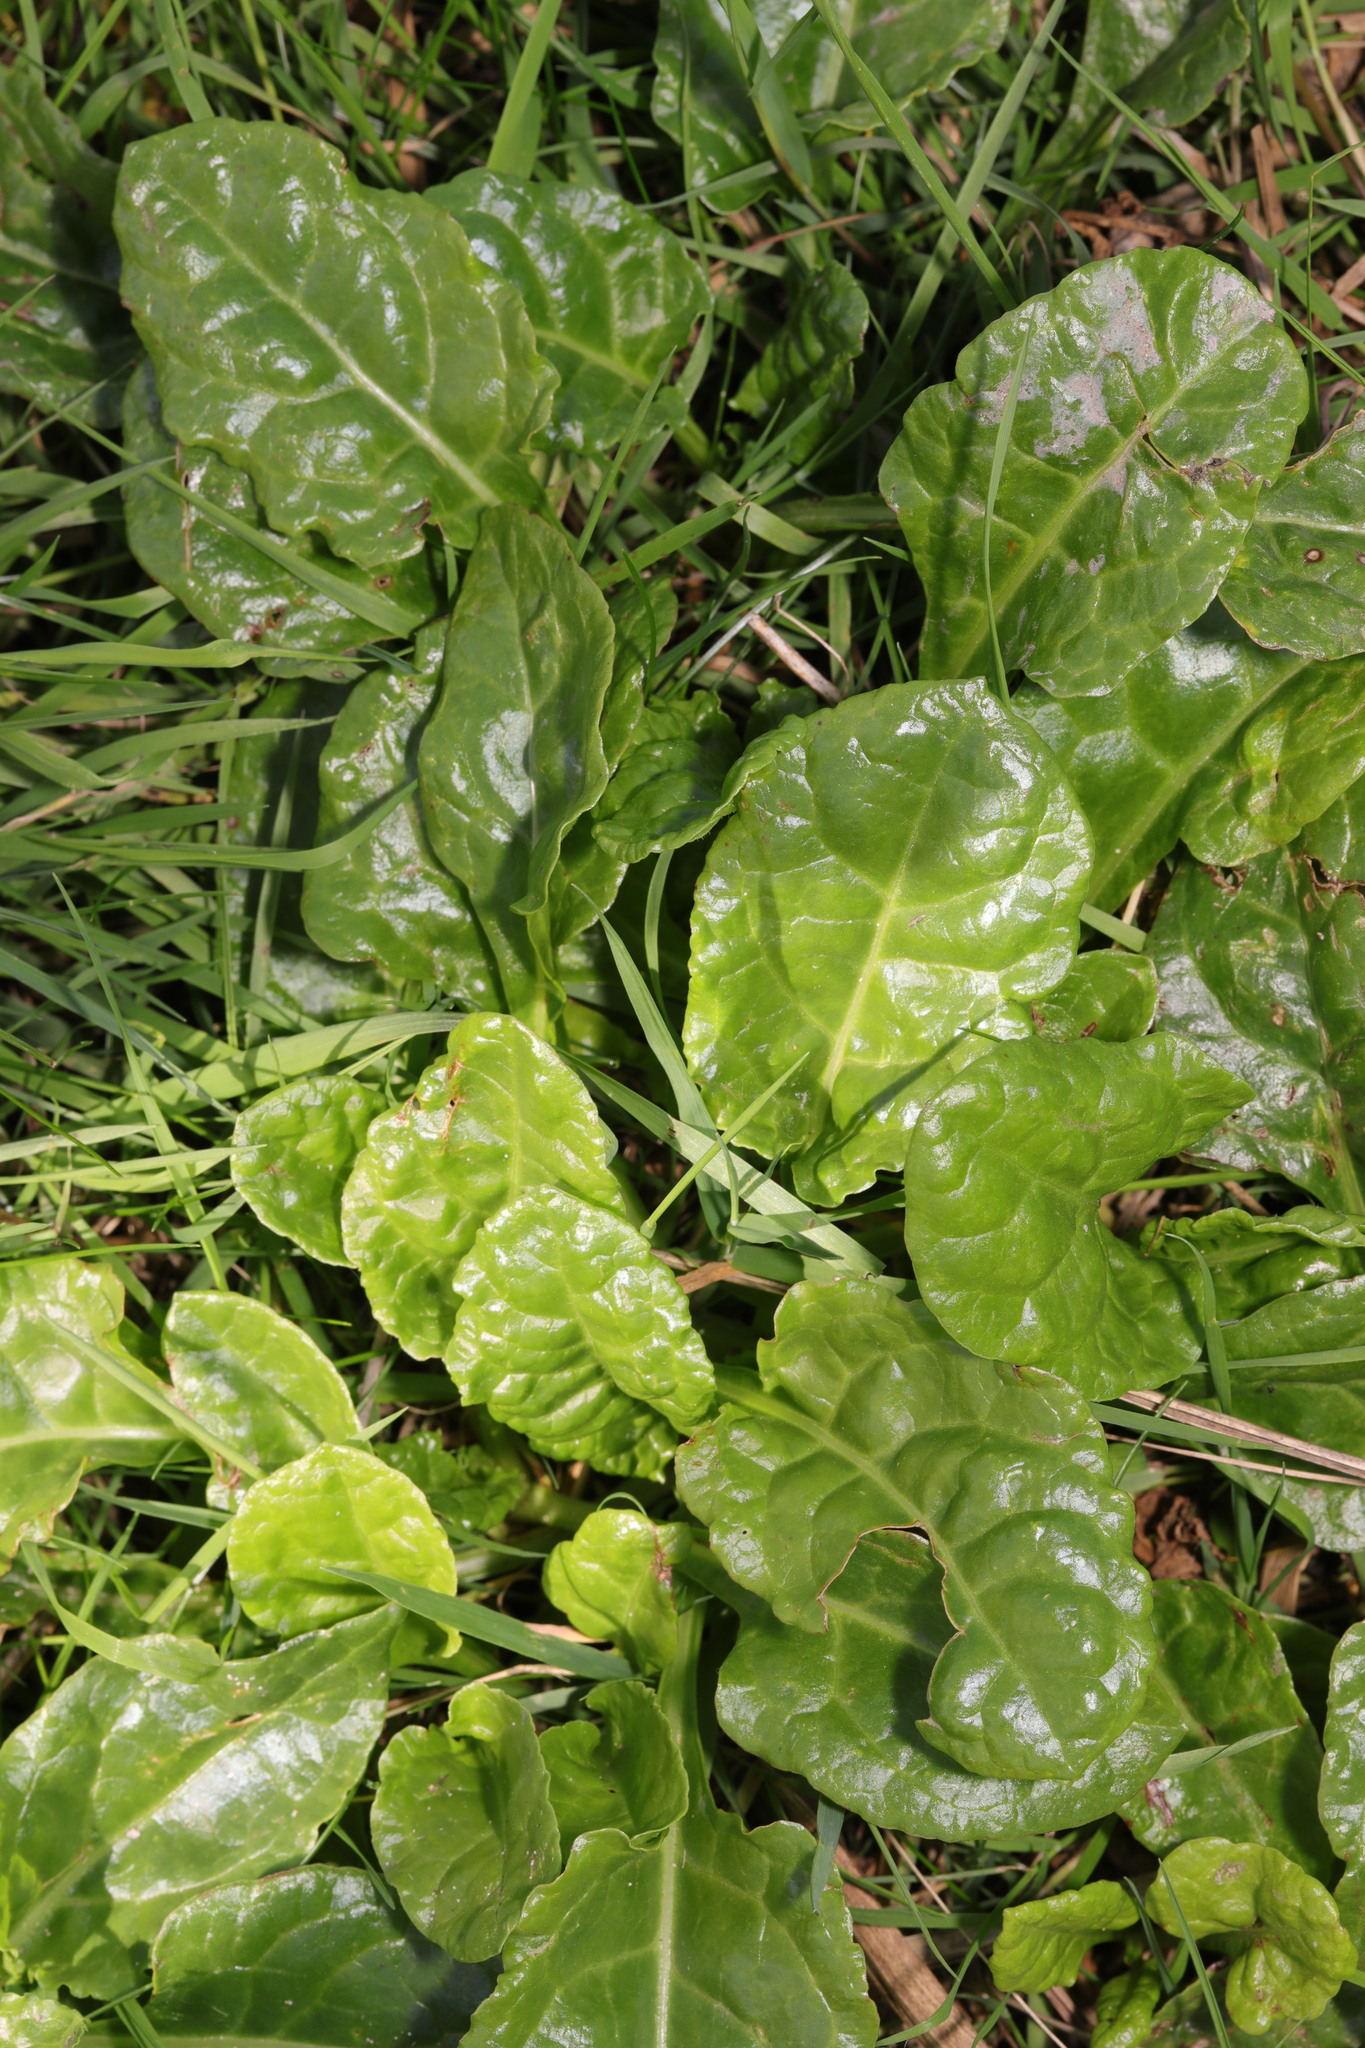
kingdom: Plantae
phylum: Tracheophyta
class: Magnoliopsida
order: Caryophyllales
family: Amaranthaceae
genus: Beta
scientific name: Beta vulgaris
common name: Beet
